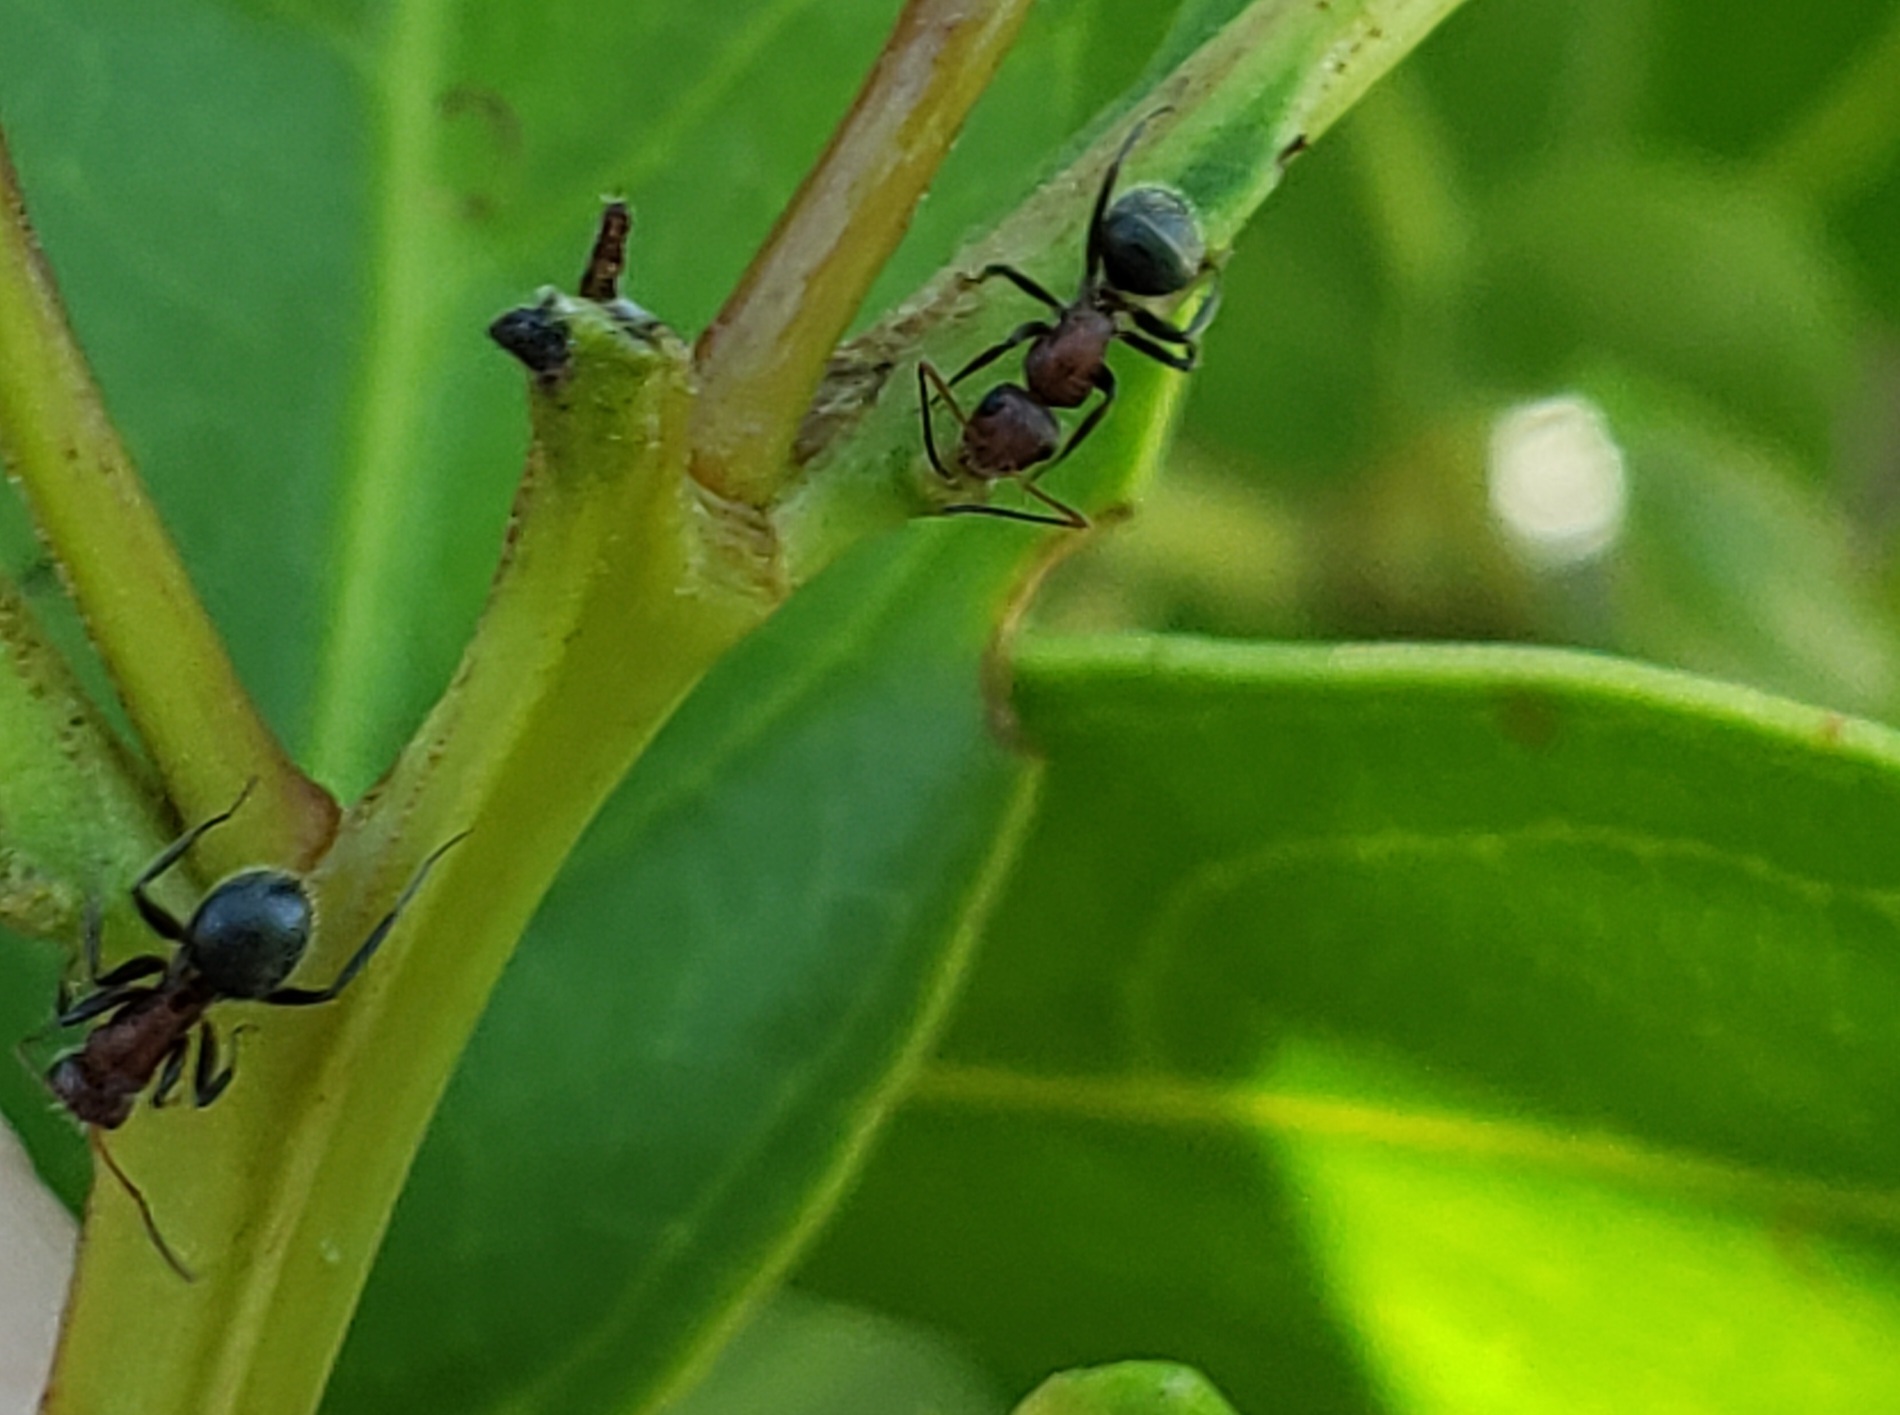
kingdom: Animalia
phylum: Arthropoda
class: Insecta
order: Hymenoptera
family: Formicidae
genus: Camponotus
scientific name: Camponotus planatus
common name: Compact carpenter ant
